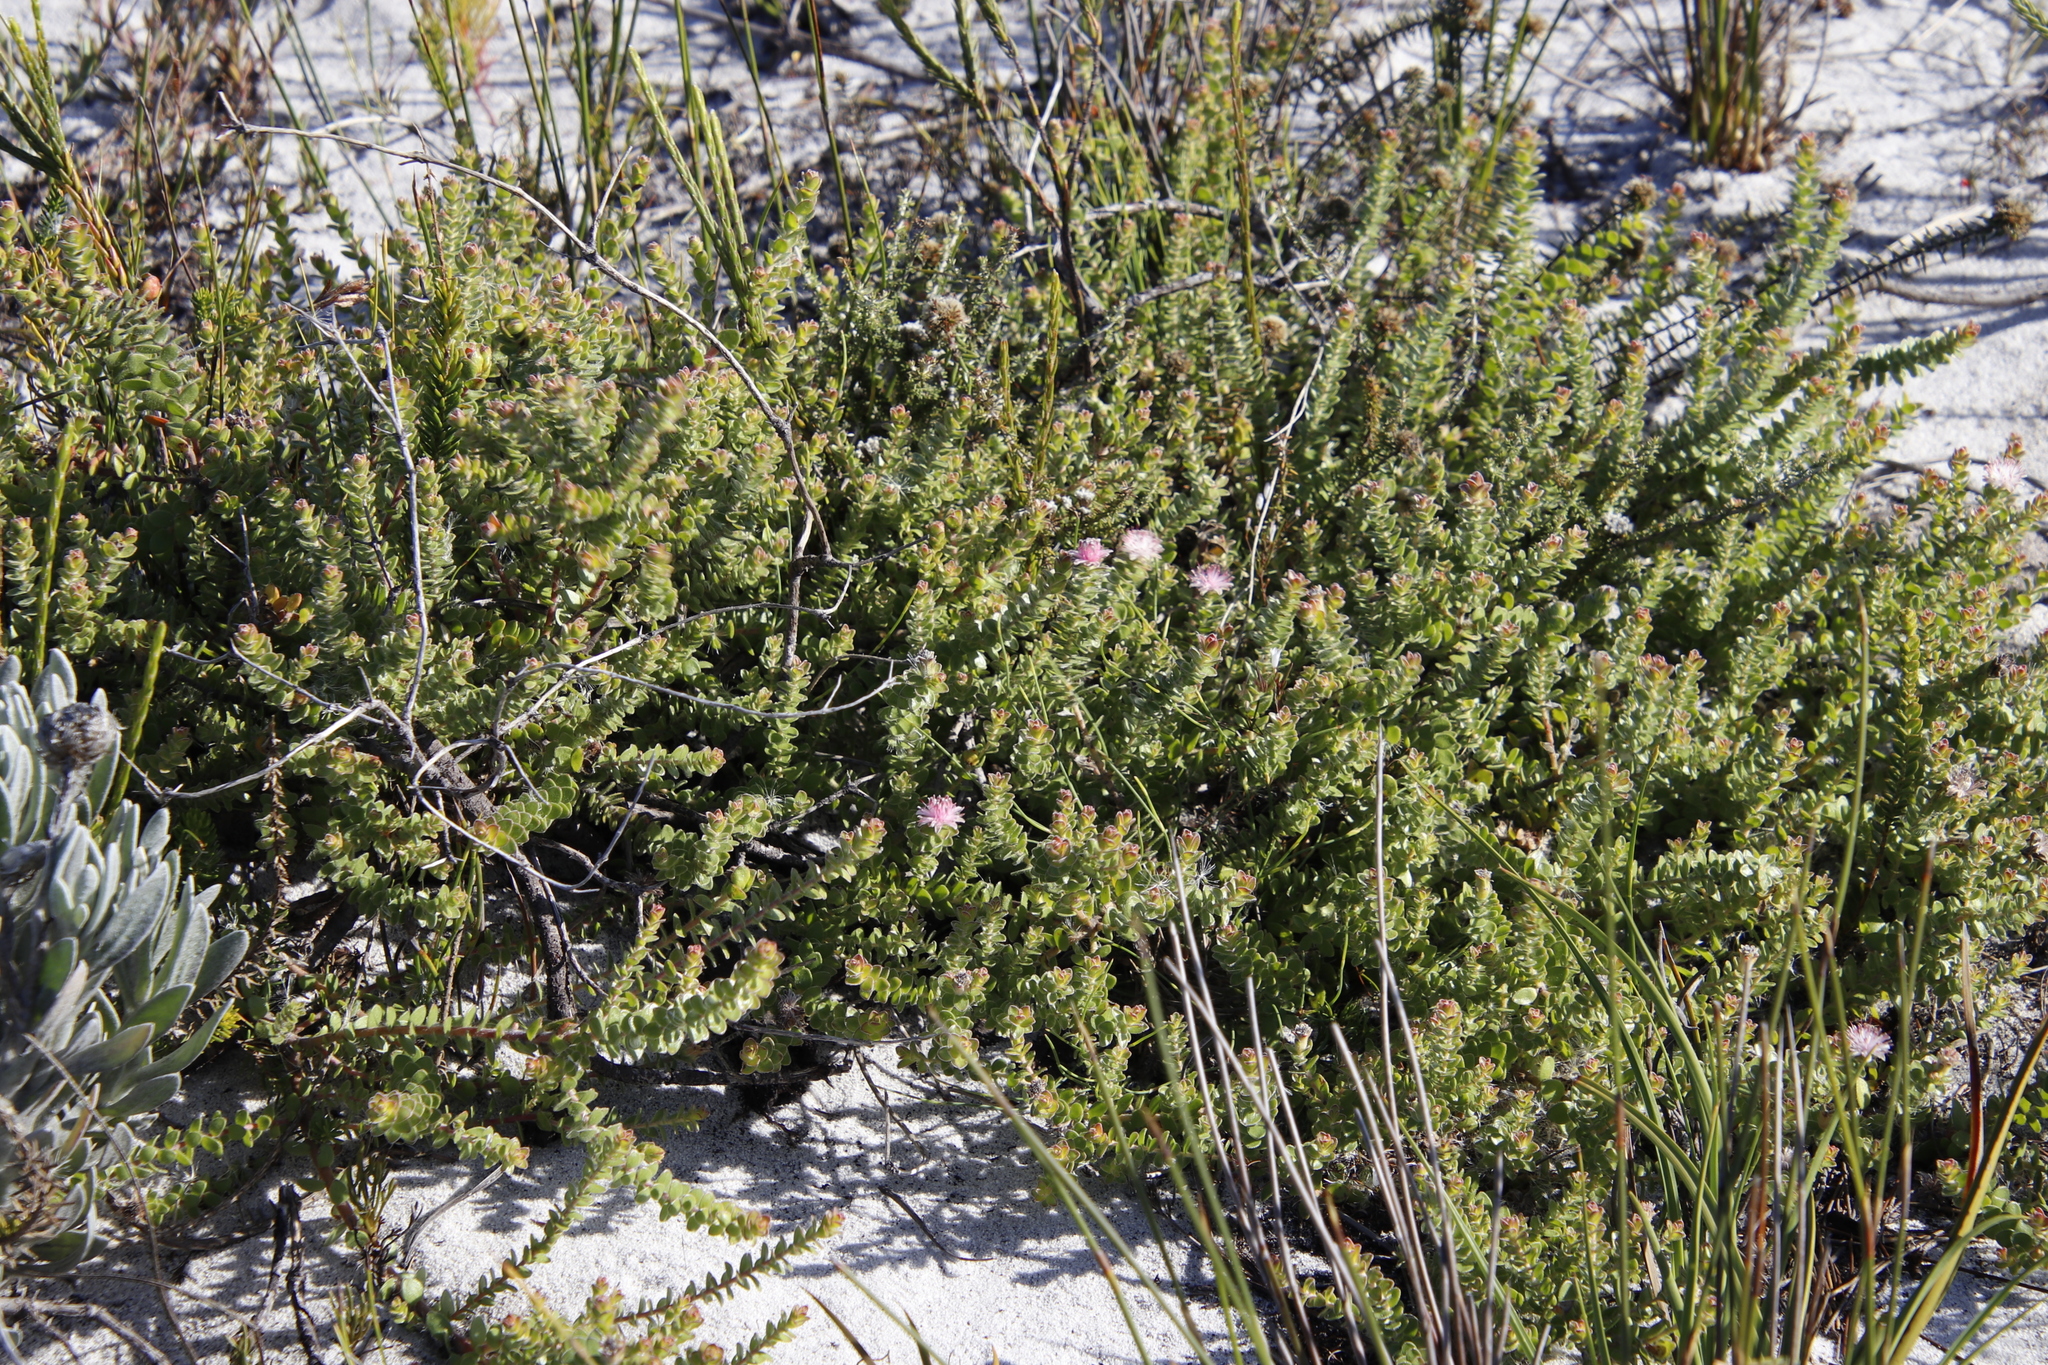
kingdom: Plantae
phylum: Tracheophyta
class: Magnoliopsida
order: Proteales
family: Proteaceae
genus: Diastella
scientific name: Diastella divaricata
